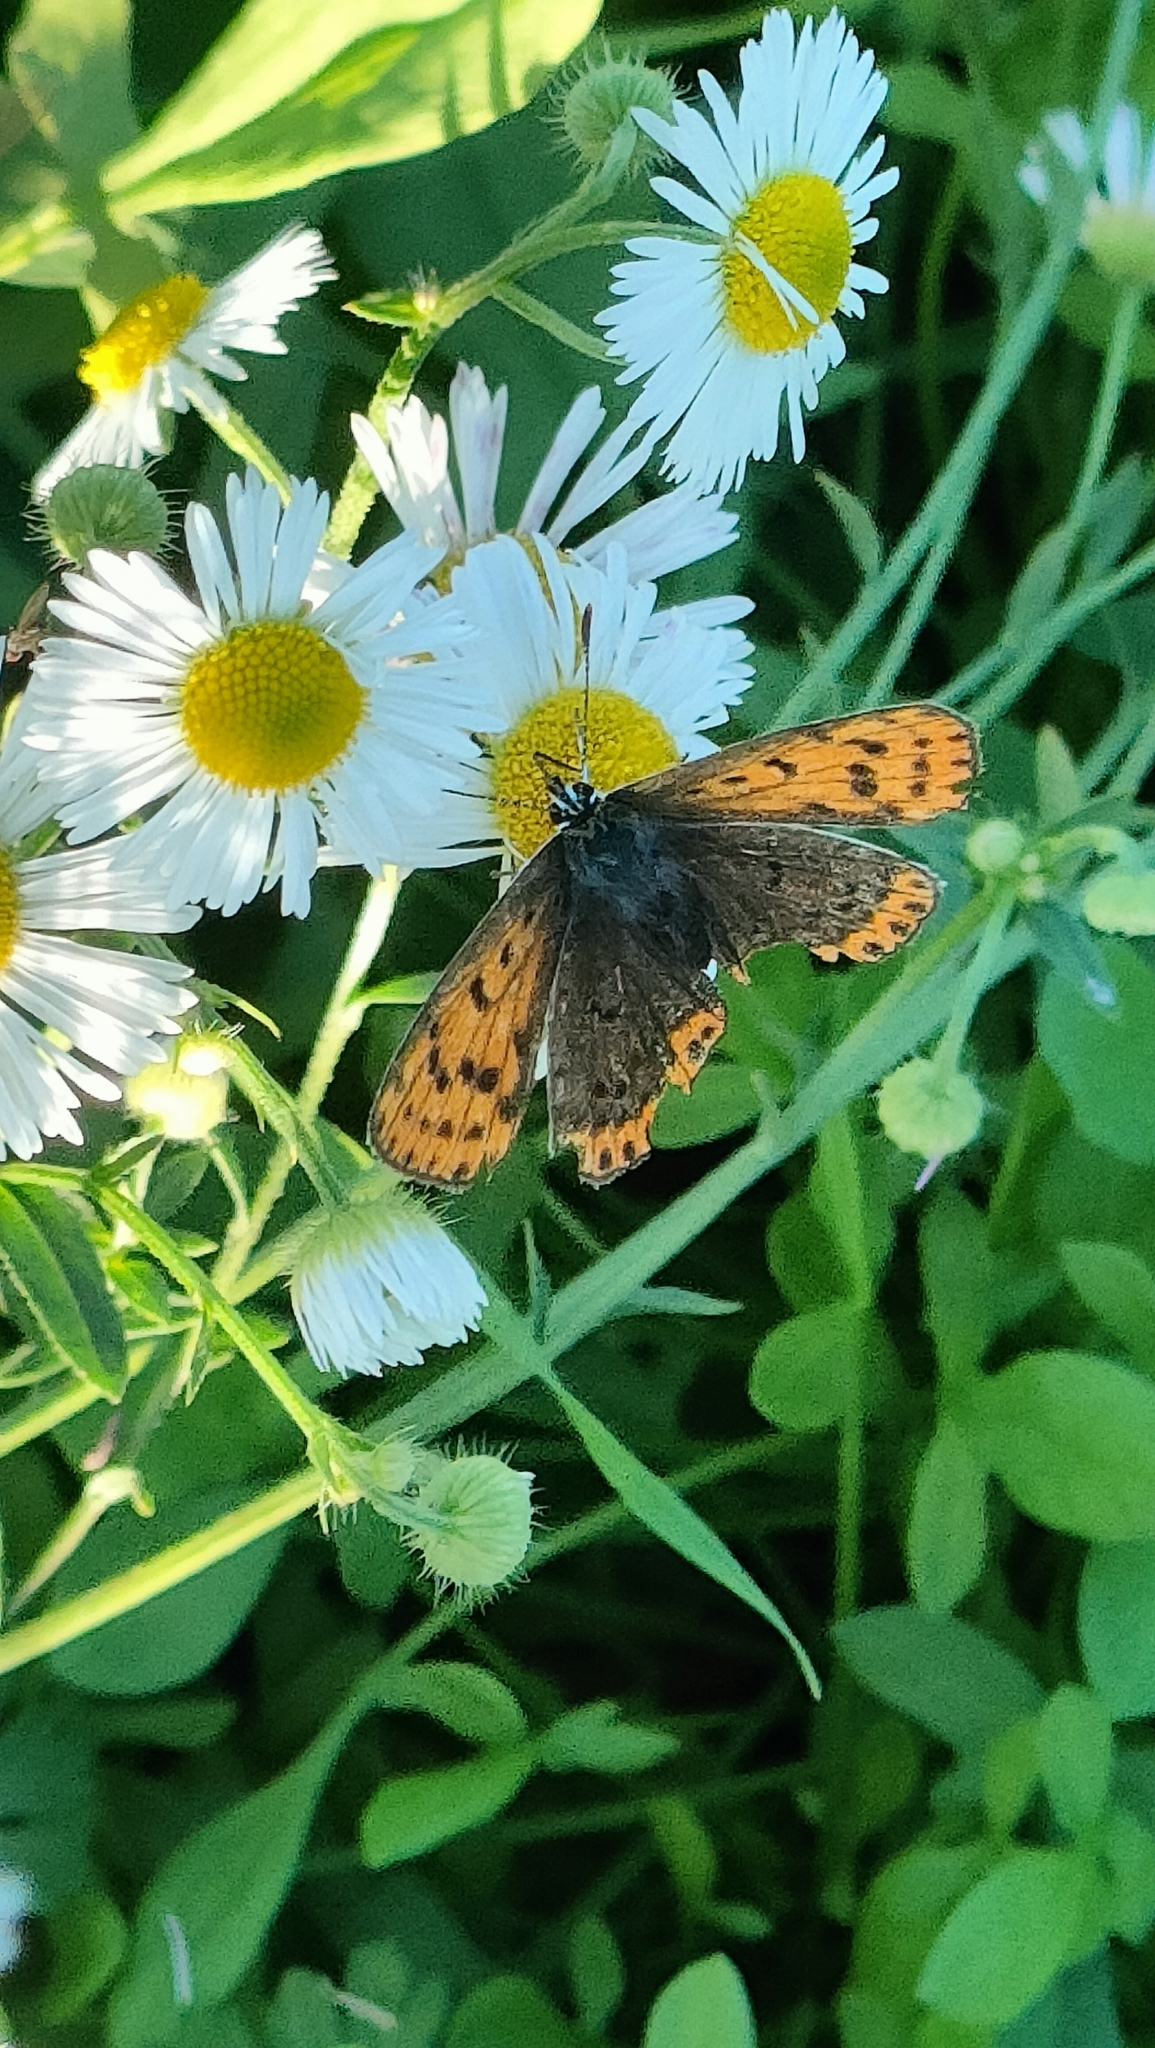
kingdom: Animalia
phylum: Arthropoda
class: Insecta
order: Lepidoptera
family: Lycaenidae
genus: Loweia
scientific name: Loweia tityrus
